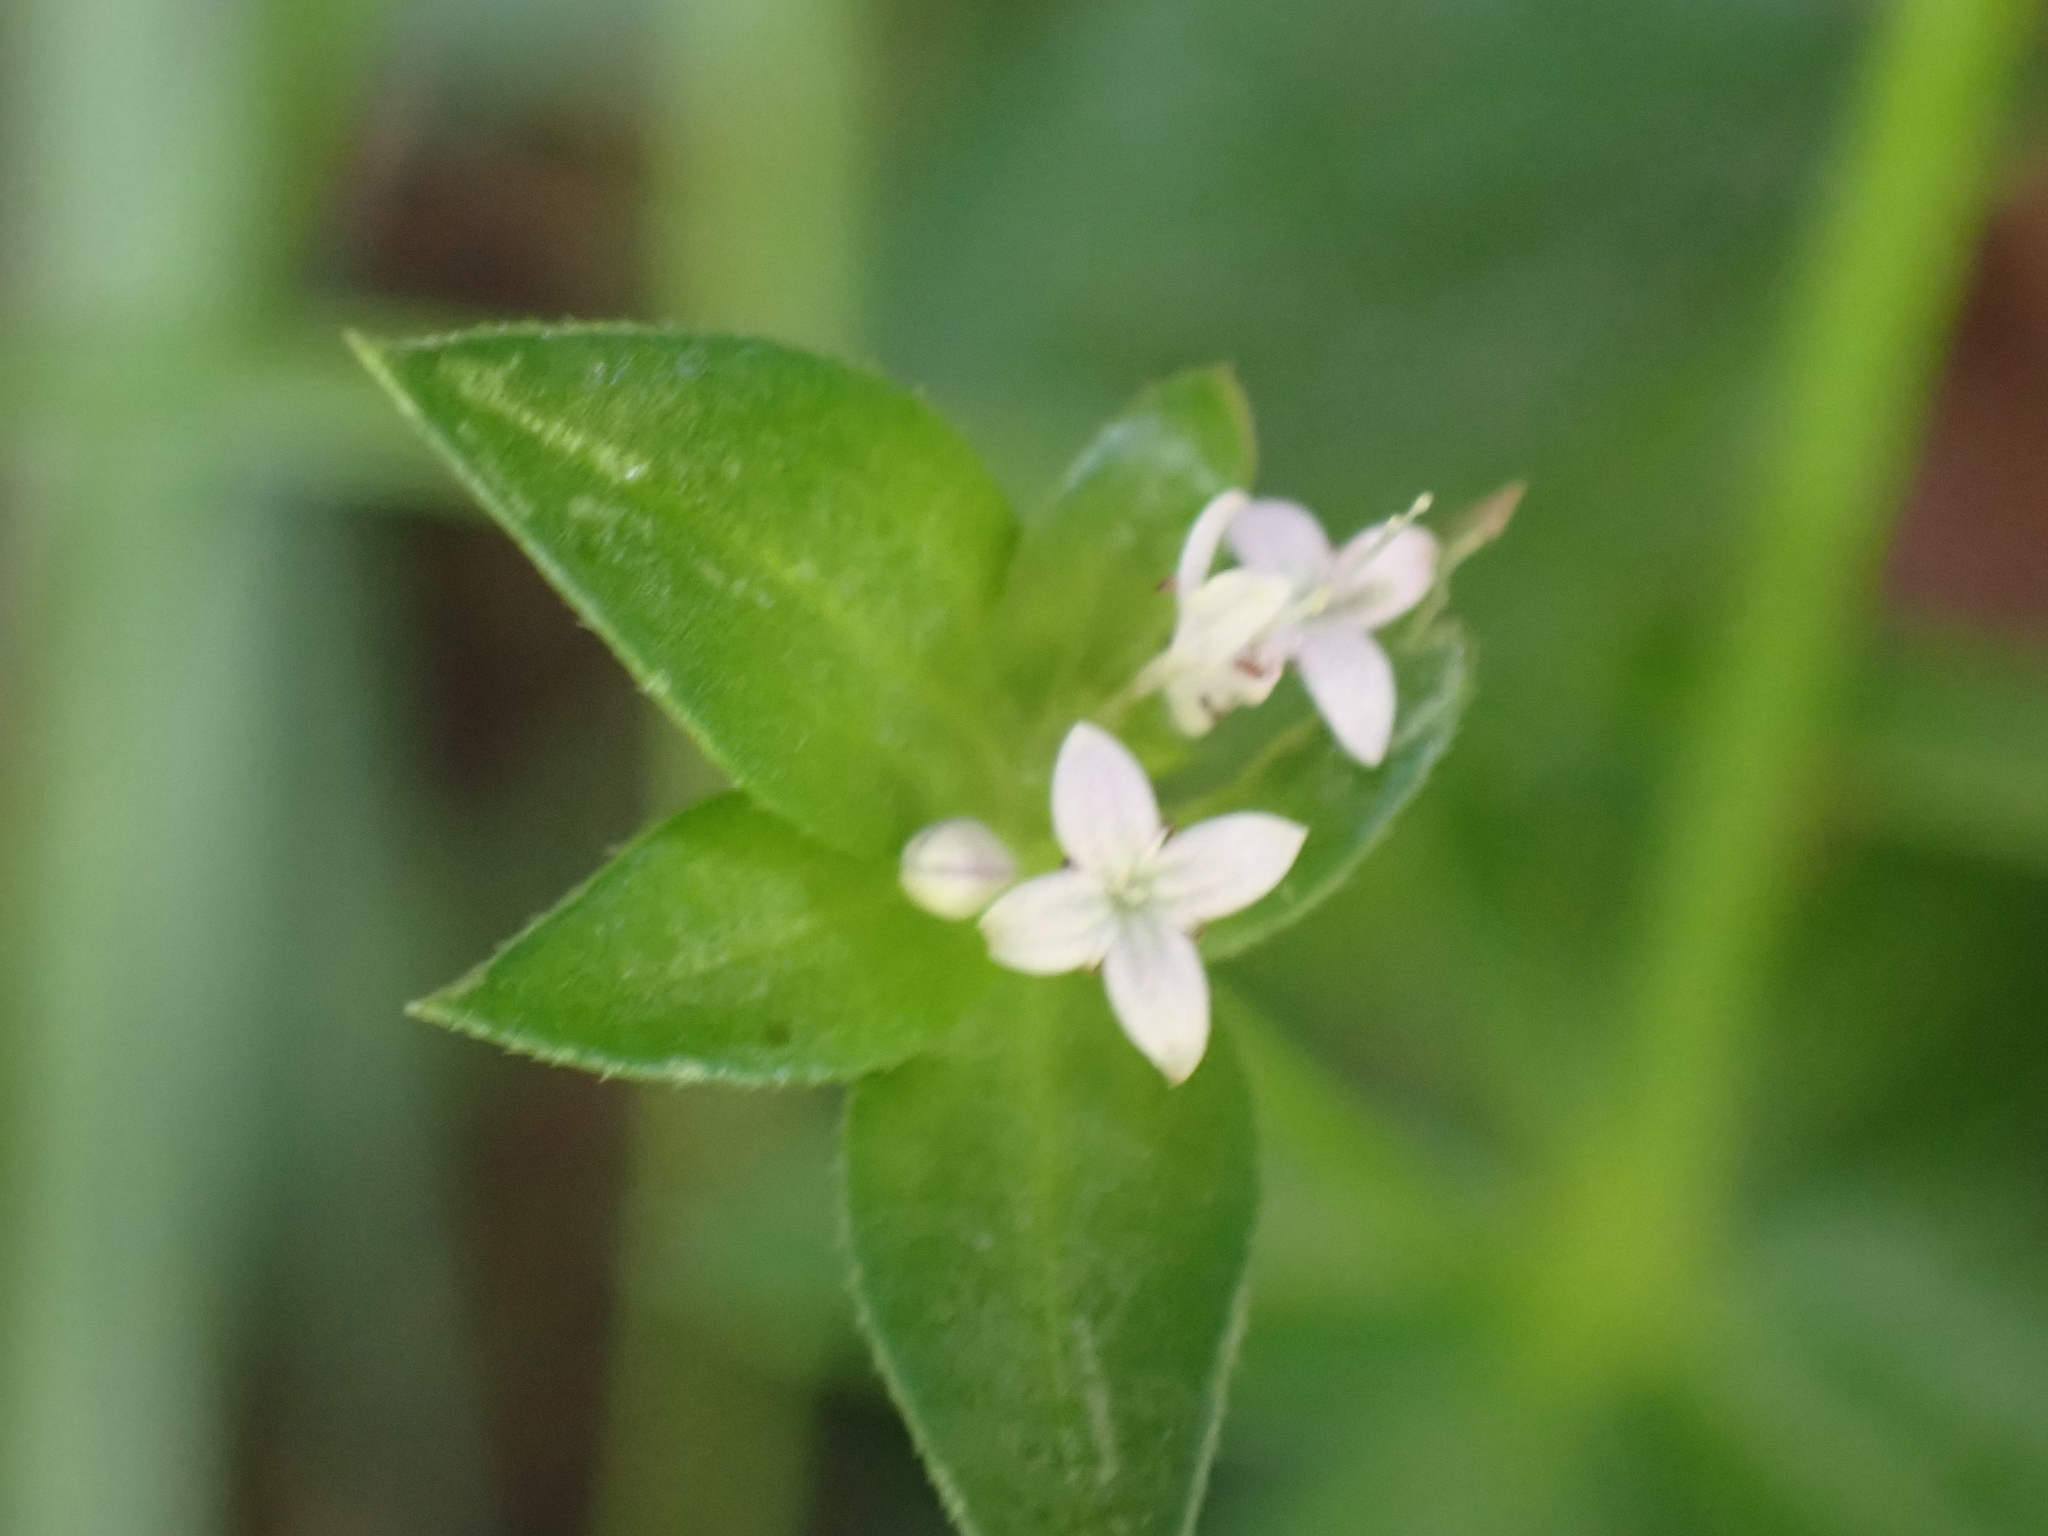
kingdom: Plantae
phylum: Tracheophyta
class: Magnoliopsida
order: Gentianales
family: Rubiaceae
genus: Sherardia
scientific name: Sherardia arvensis
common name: Field madder
